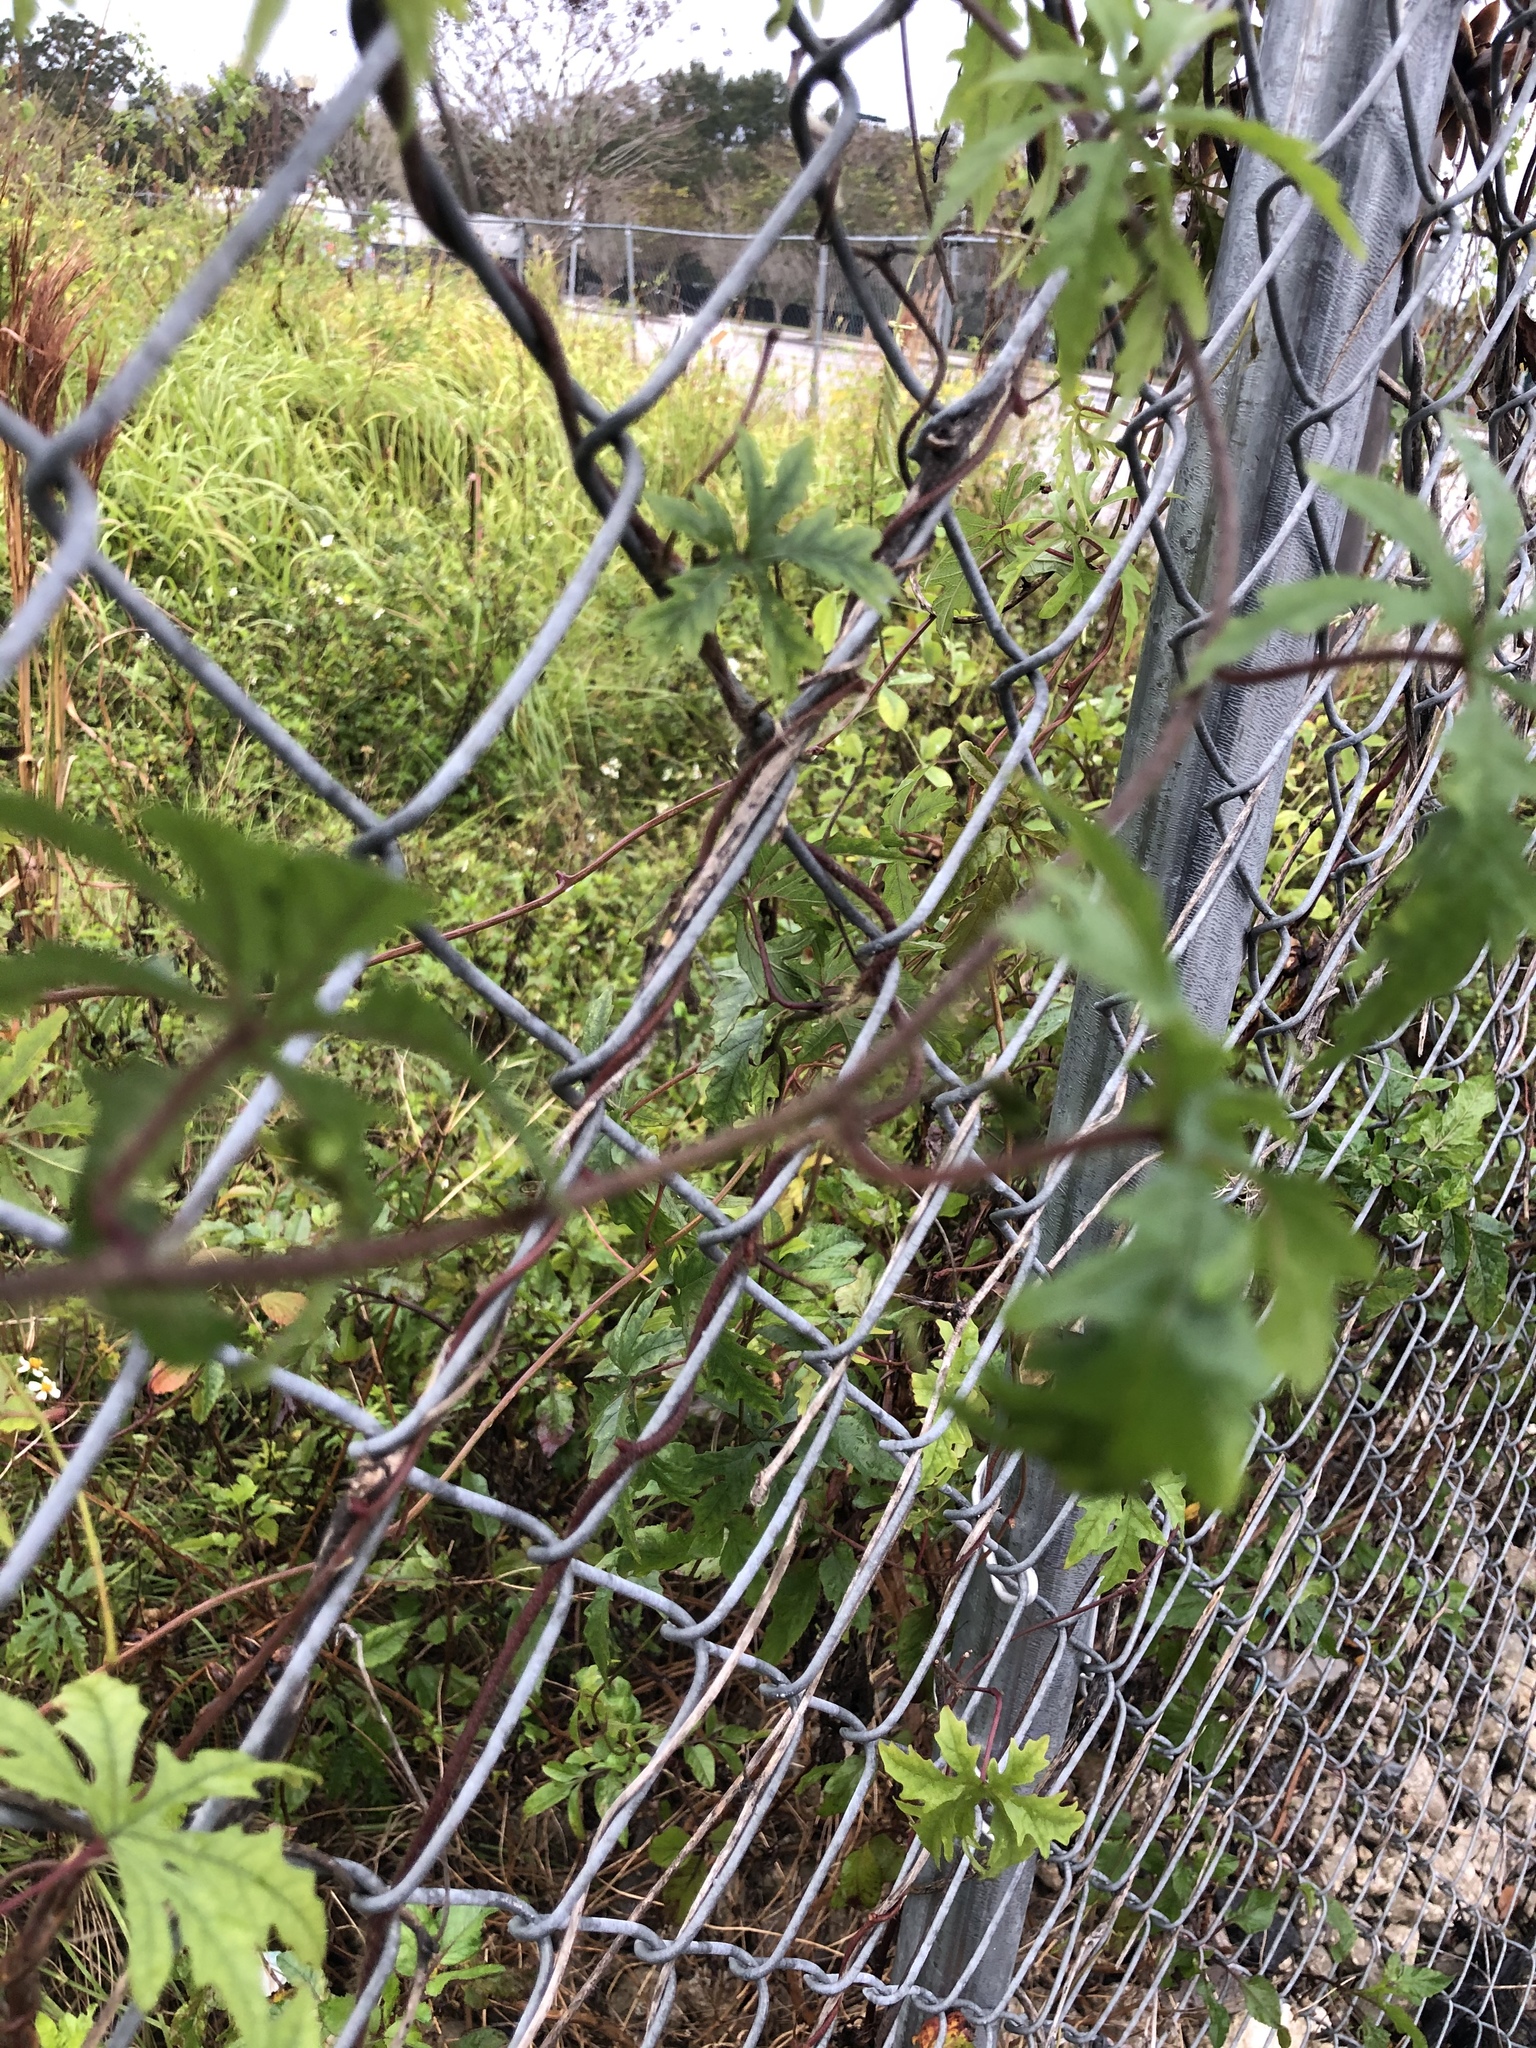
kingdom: Plantae
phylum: Tracheophyta
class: Magnoliopsida
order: Solanales
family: Convolvulaceae
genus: Distimake
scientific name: Distimake dissectus
